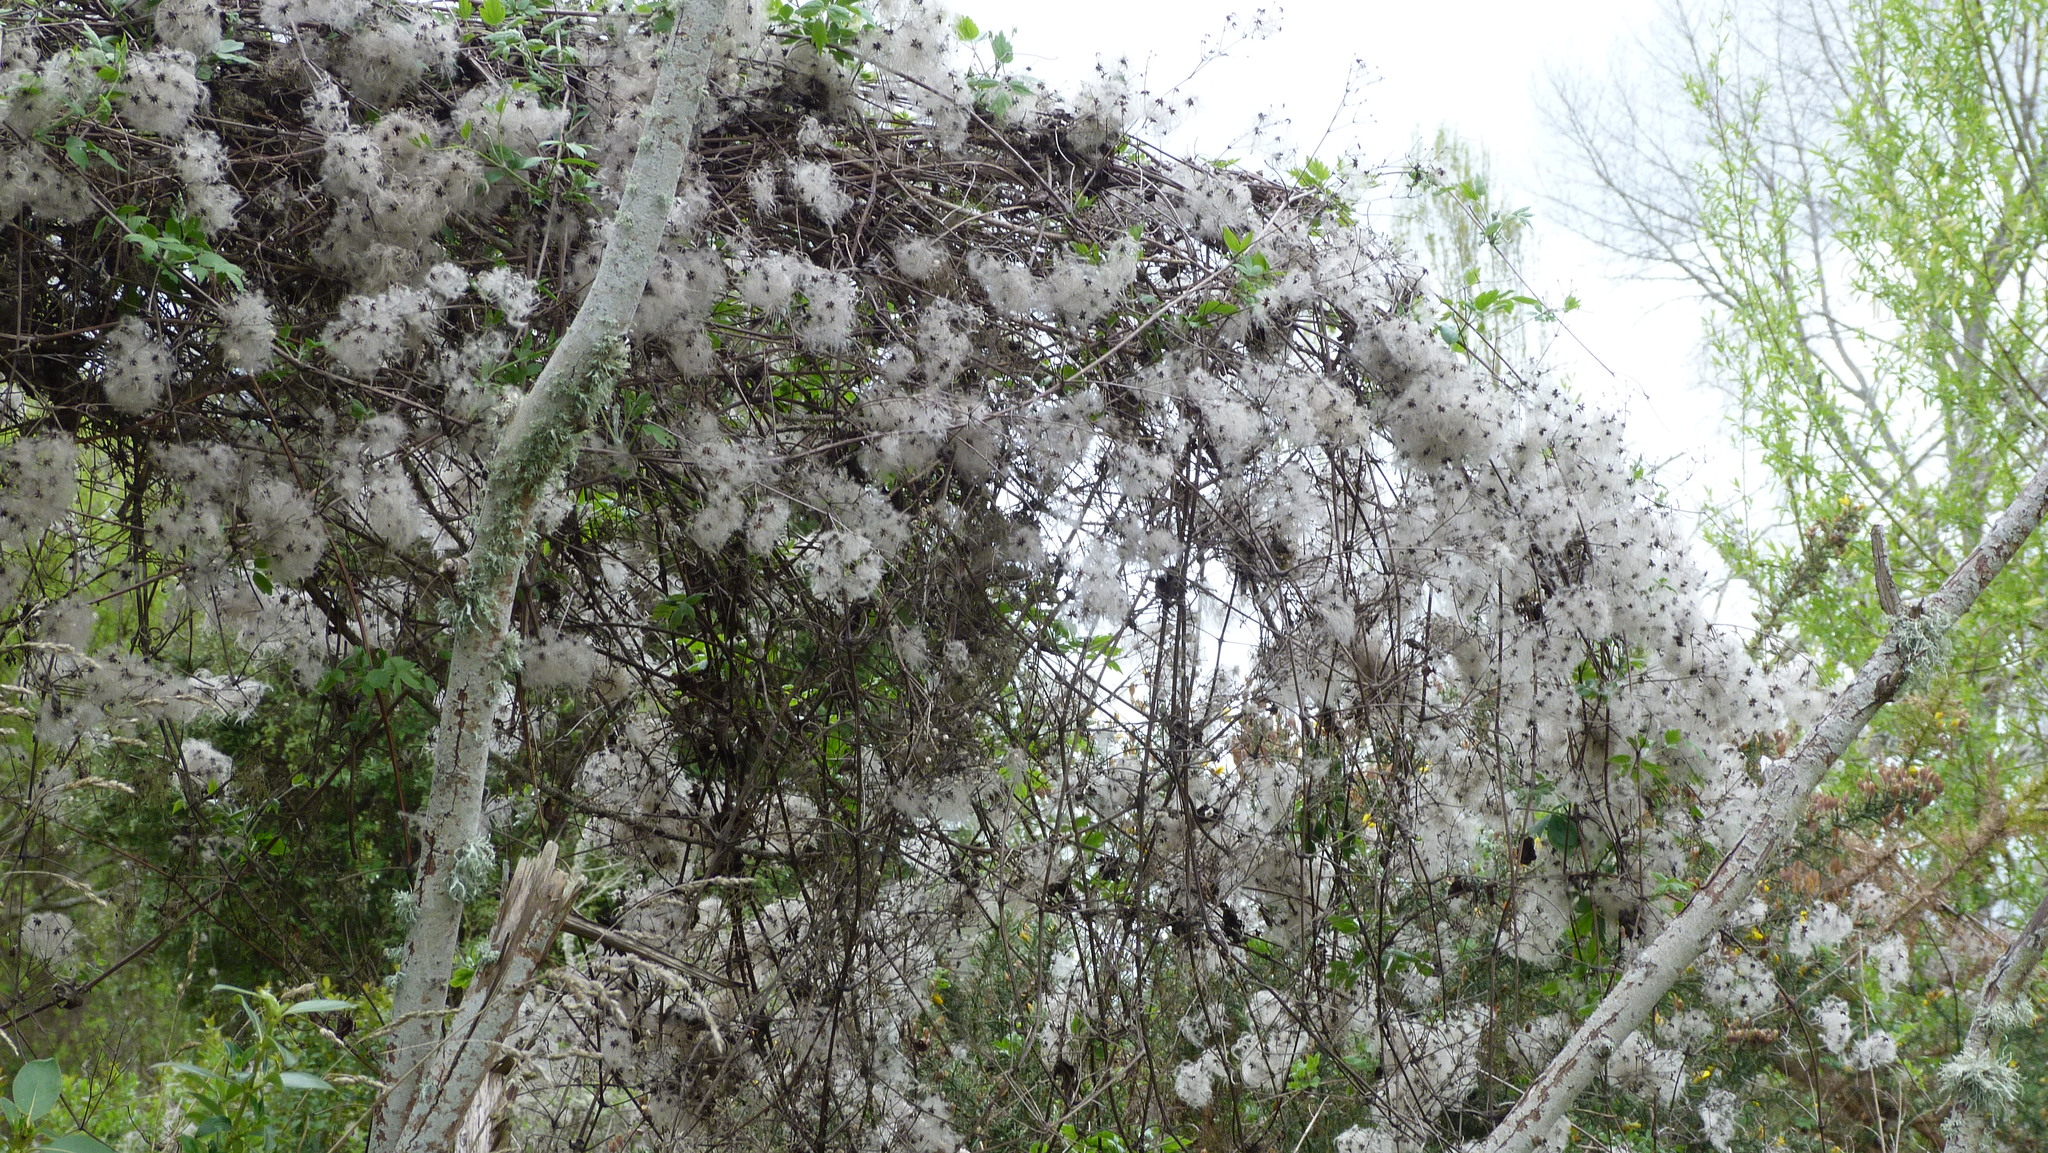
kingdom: Plantae
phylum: Tracheophyta
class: Magnoliopsida
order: Ranunculales
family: Ranunculaceae
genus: Clematis
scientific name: Clematis vitalba
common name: Evergreen clematis
